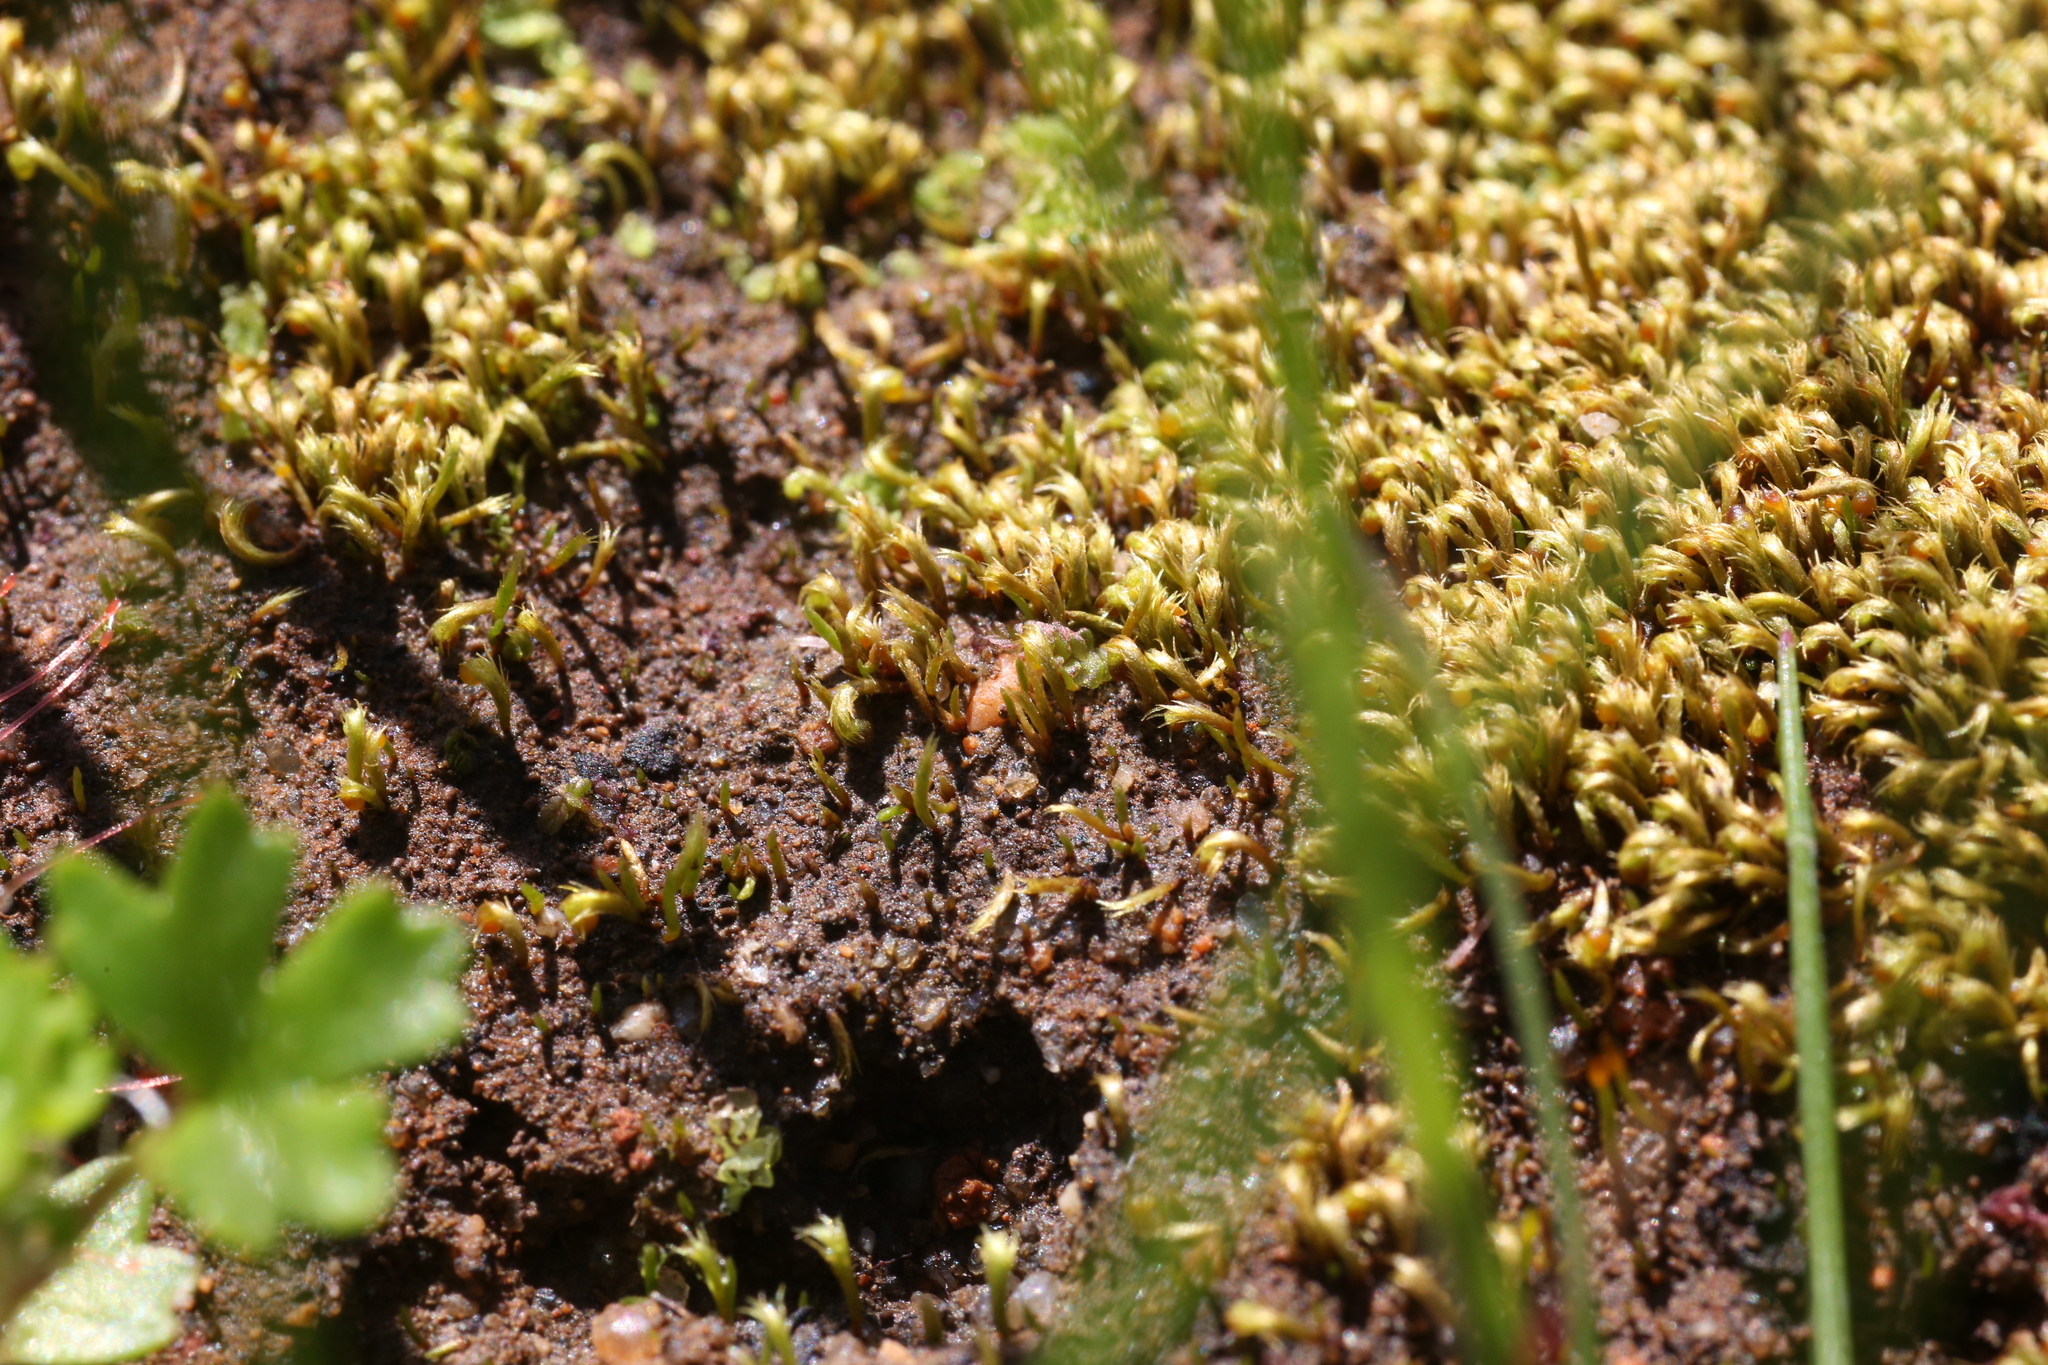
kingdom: Plantae
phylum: Bryophyta
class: Bryopsida
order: Dicranales
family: Dicranellaceae
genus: Eccremidium
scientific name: Eccremidium arcuatum
